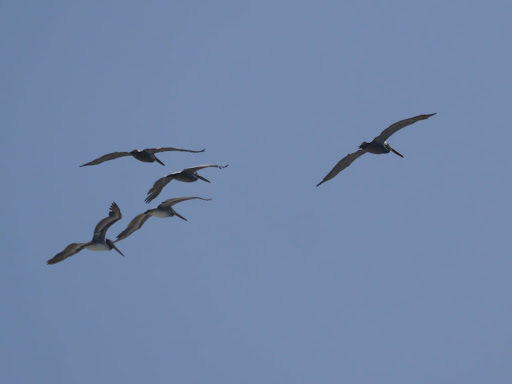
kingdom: Animalia
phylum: Chordata
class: Aves
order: Pelecaniformes
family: Pelecanidae
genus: Pelecanus
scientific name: Pelecanus occidentalis
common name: Brown pelican
